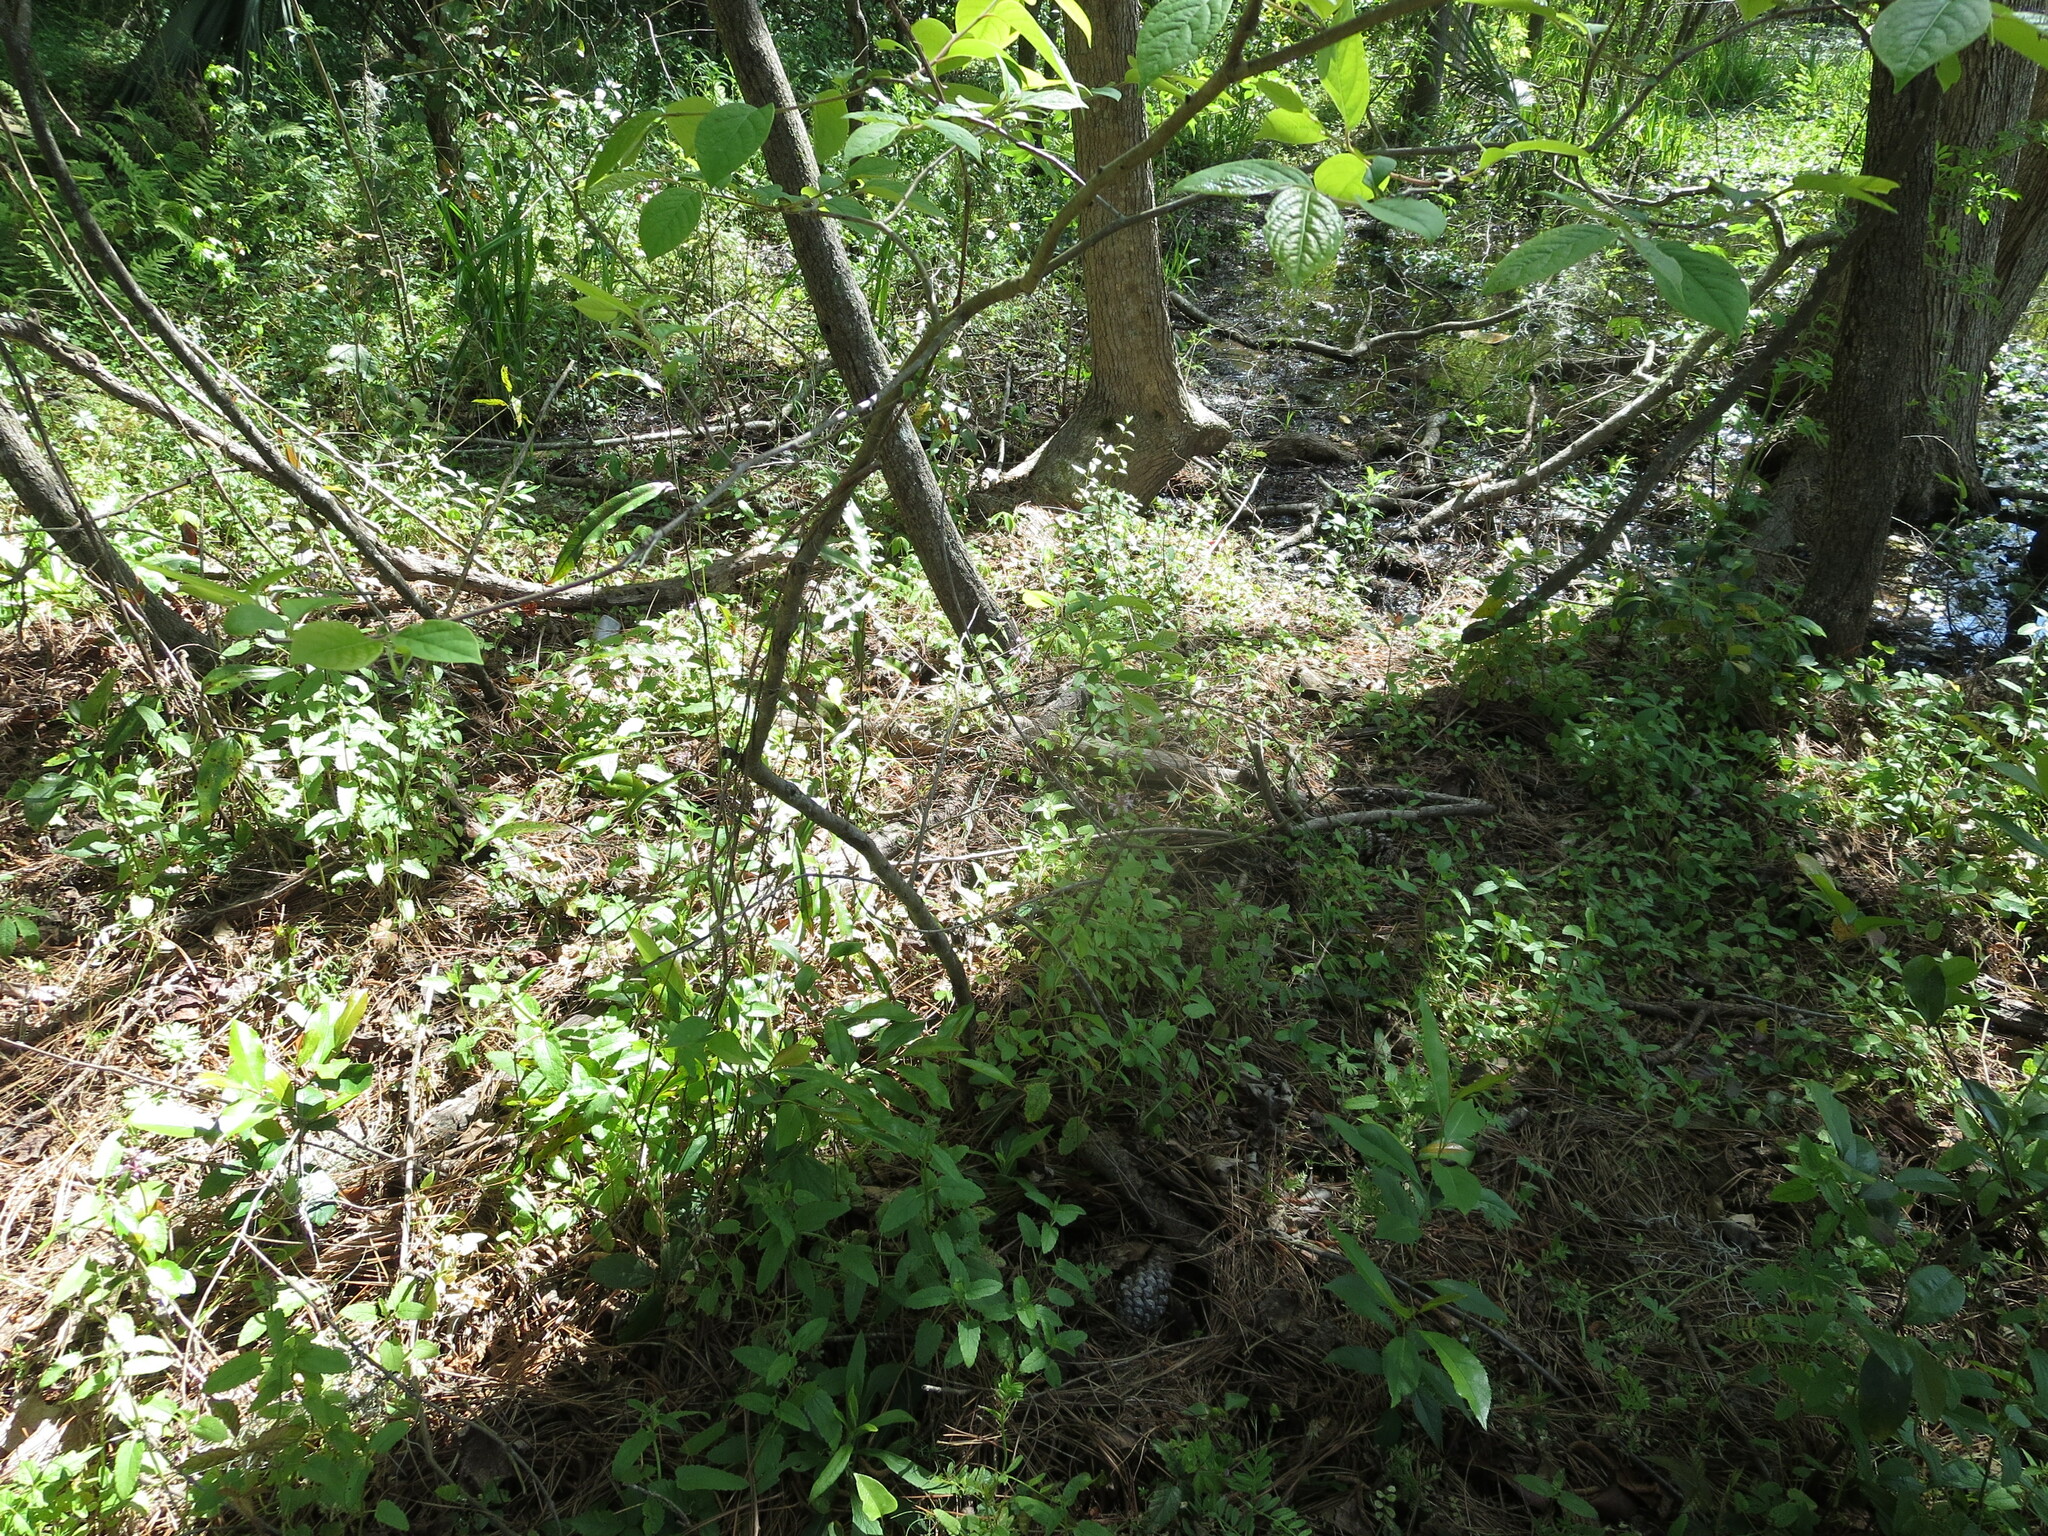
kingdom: Plantae
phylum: Tracheophyta
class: Magnoliopsida
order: Ericales
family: Ebenaceae
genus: Diospyros
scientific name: Diospyros virginiana
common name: Persimmon
